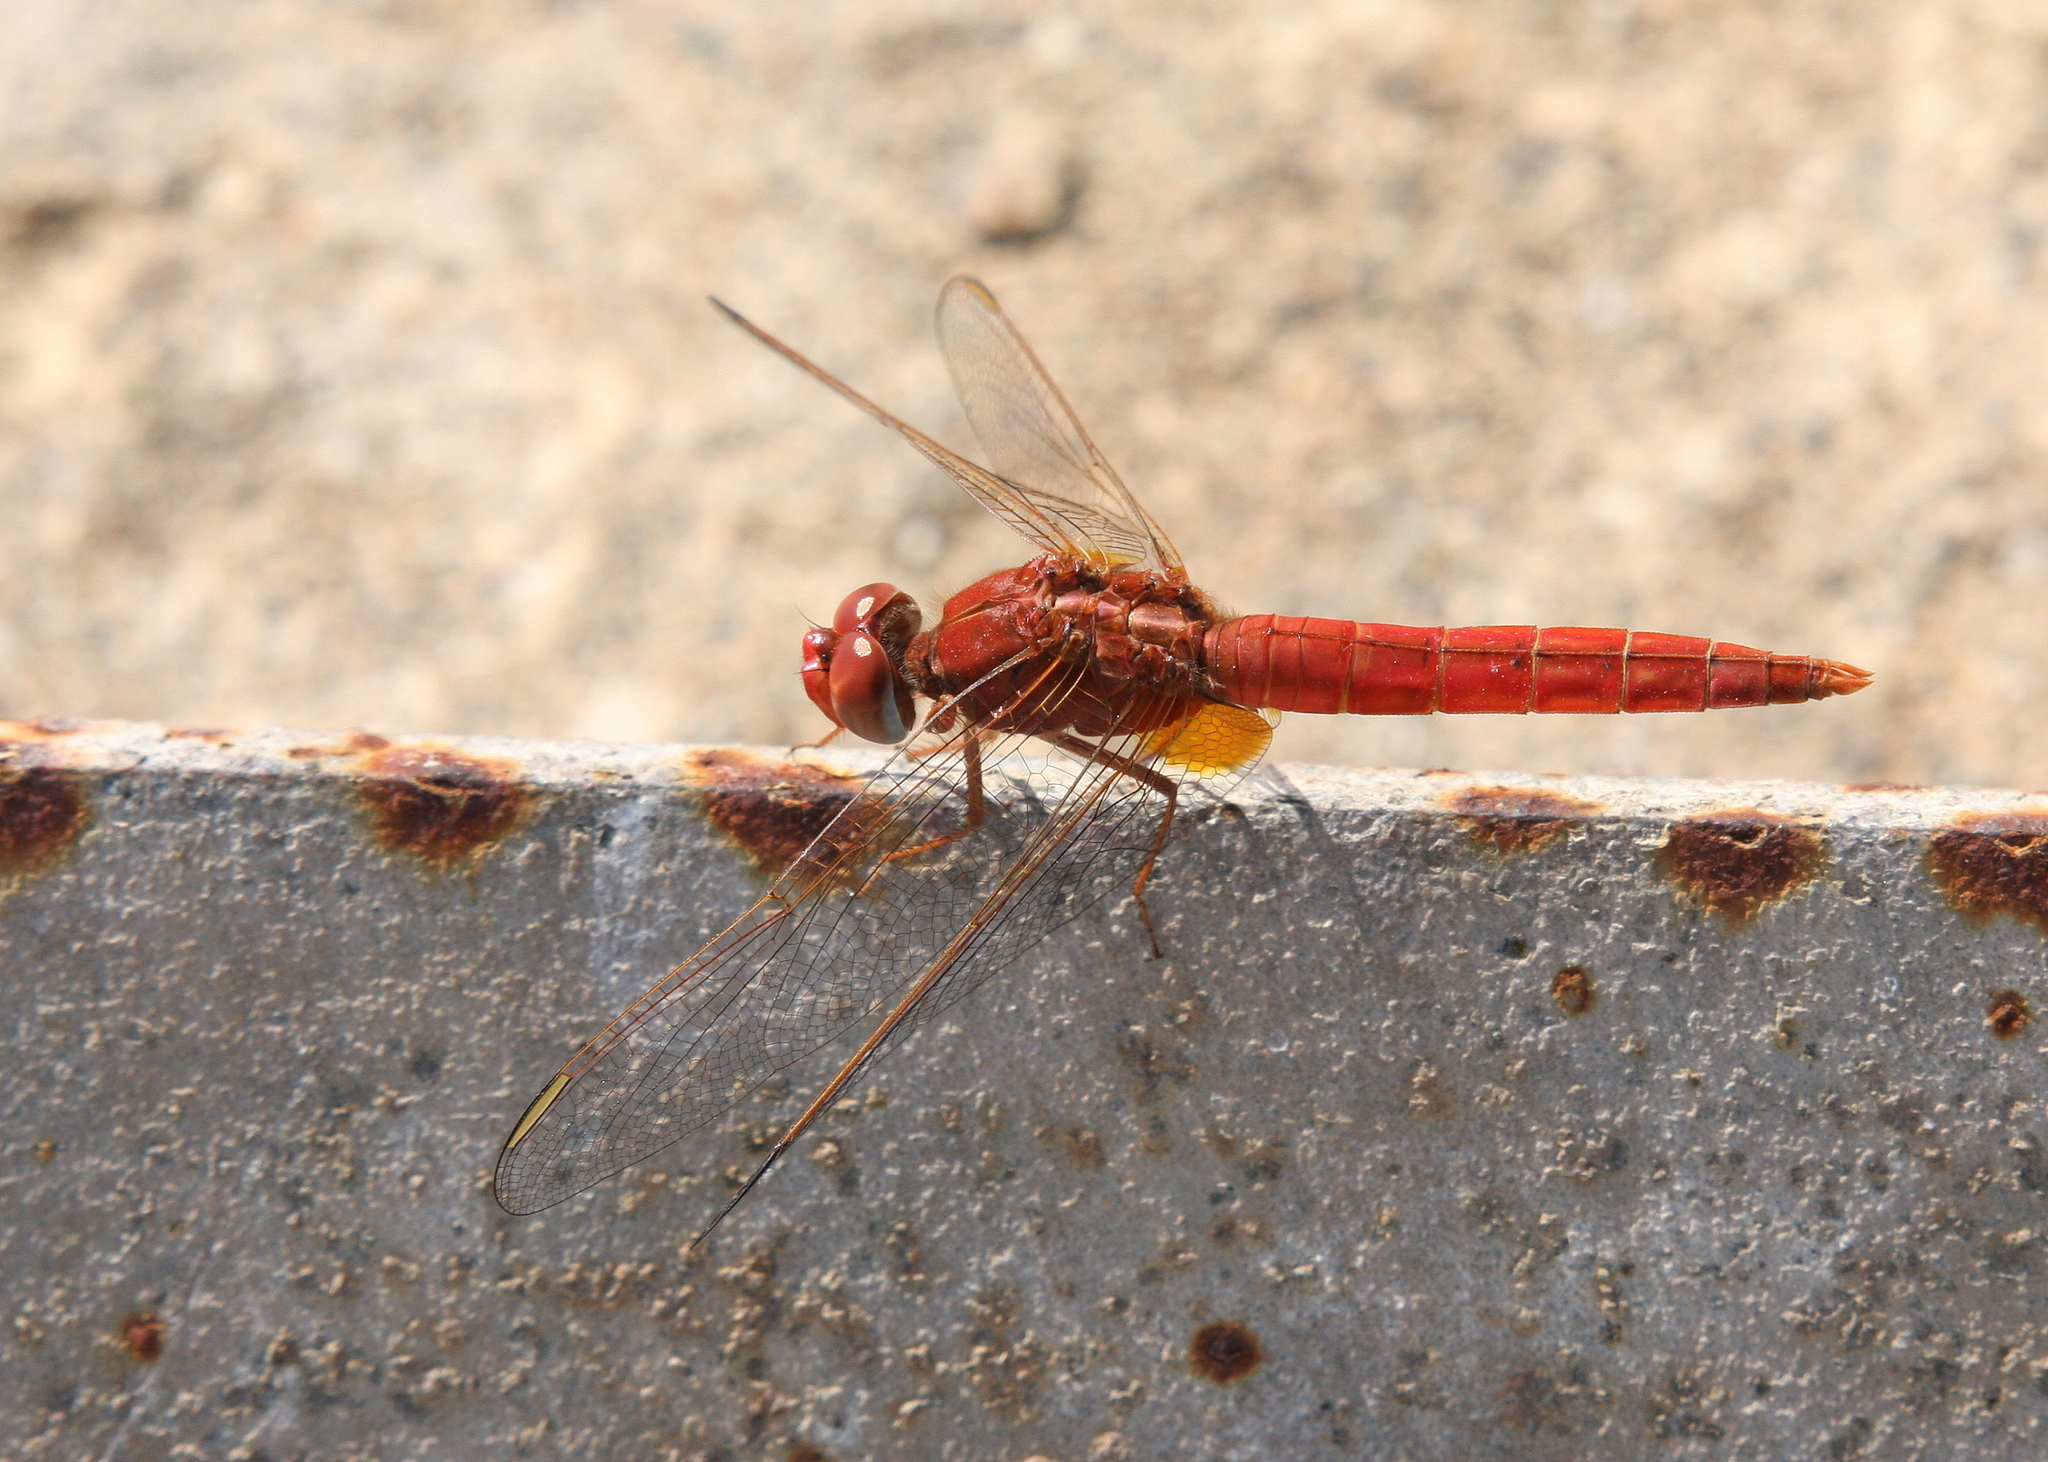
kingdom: Animalia
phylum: Arthropoda
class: Insecta
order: Odonata
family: Libellulidae
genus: Crocothemis
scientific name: Crocothemis erythraea
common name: Scarlet dragonfly
